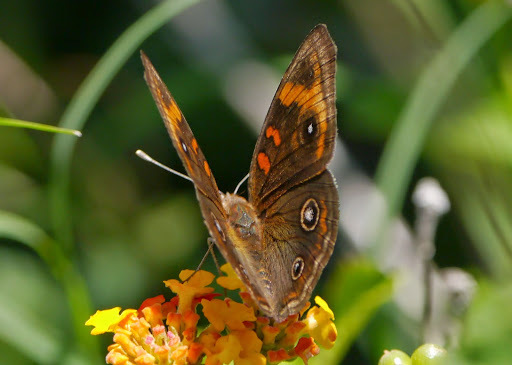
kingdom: Animalia
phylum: Arthropoda
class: Insecta
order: Lepidoptera
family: Nymphalidae
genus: Junonia
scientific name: Junonia stemosa
